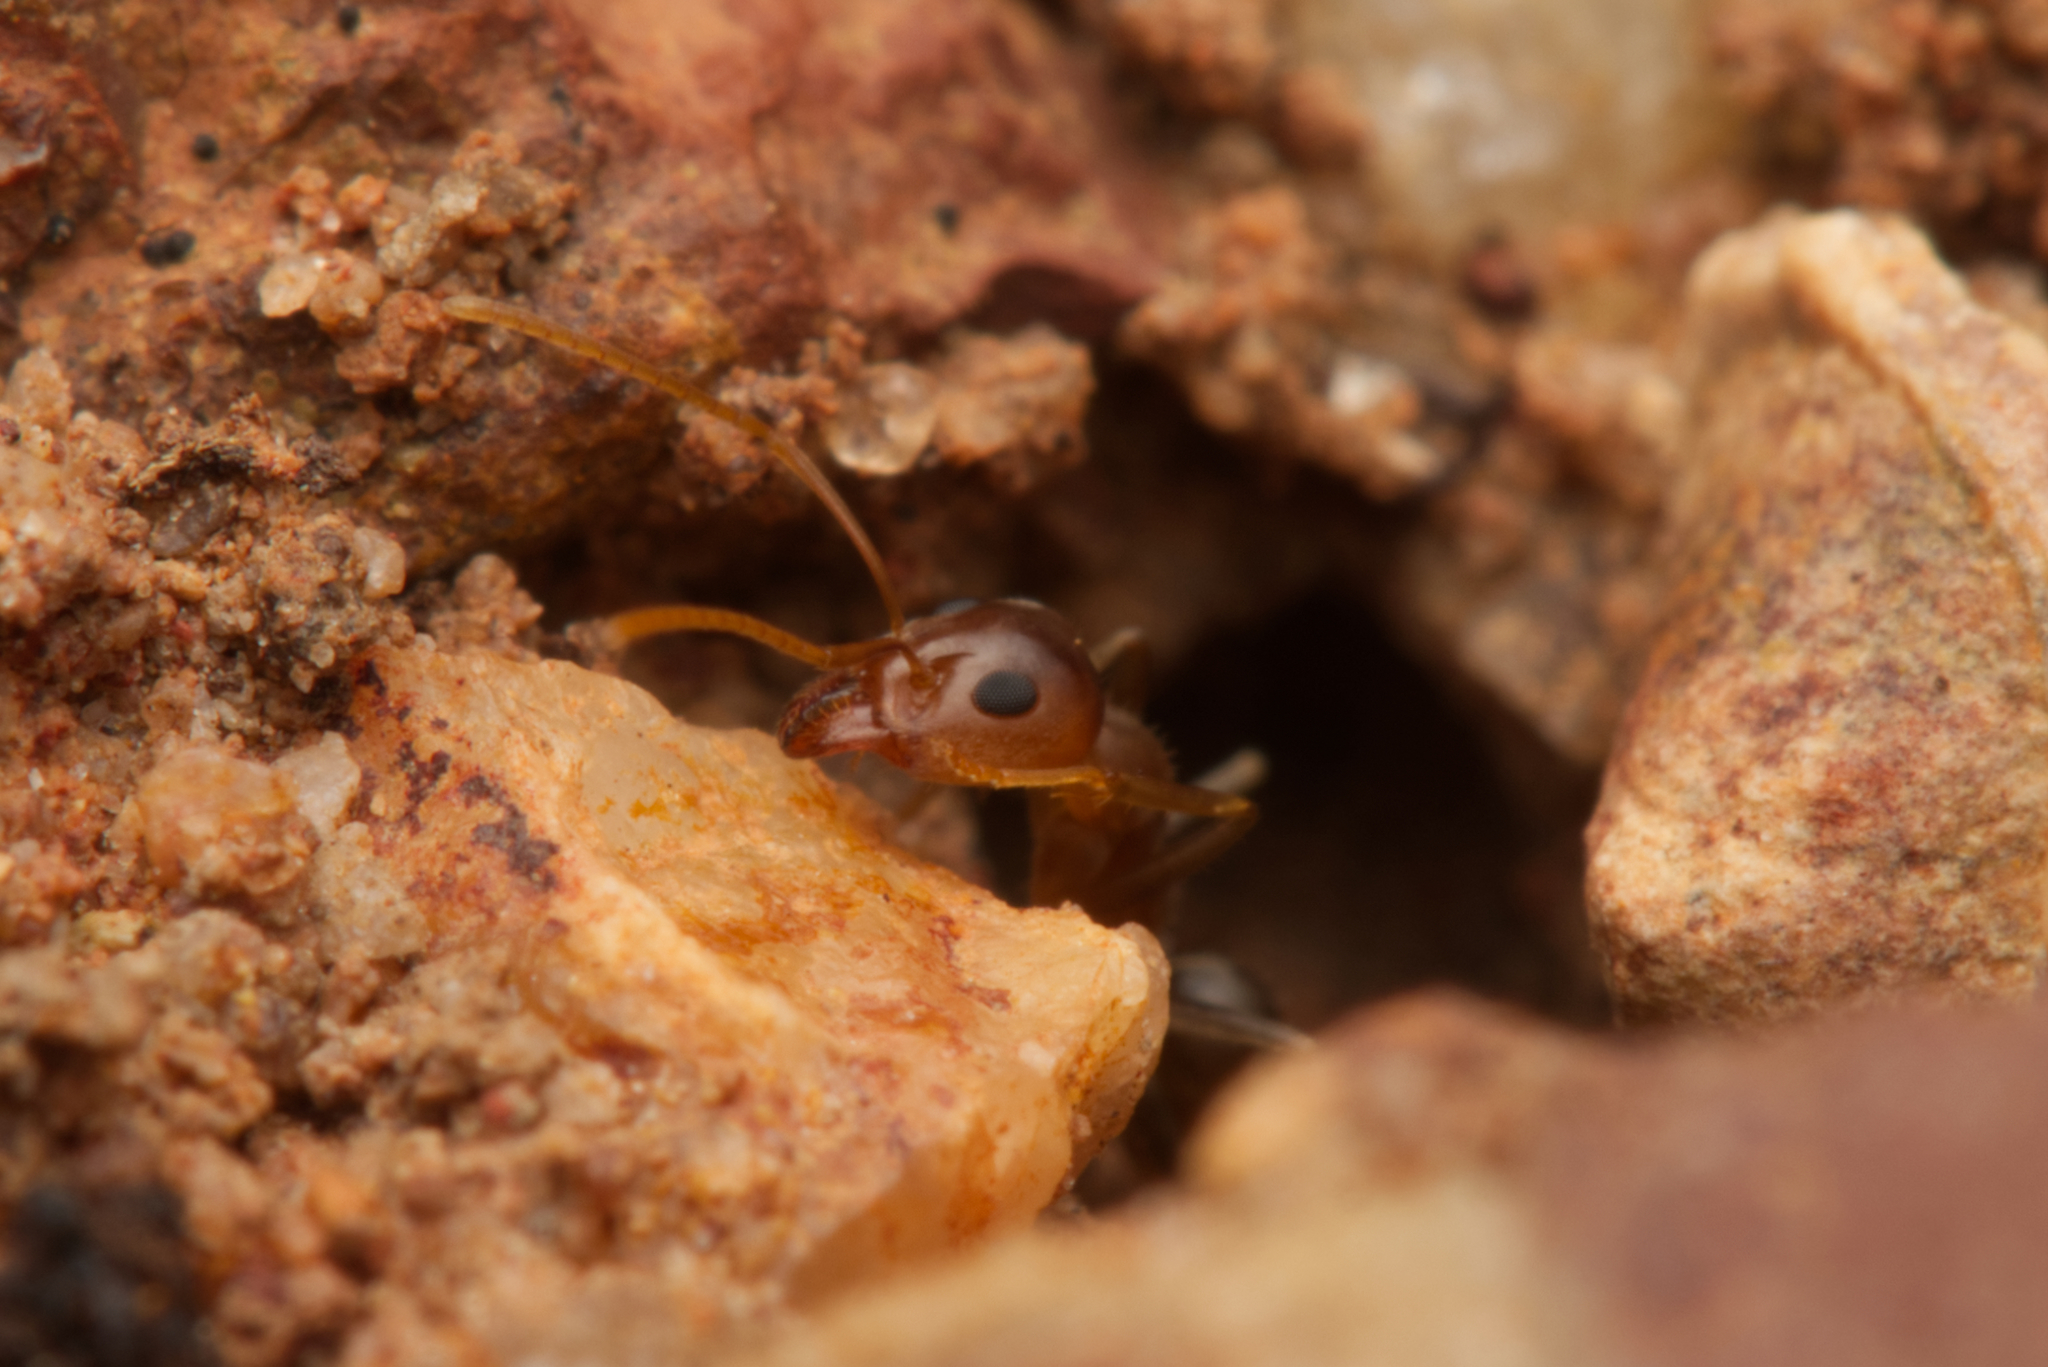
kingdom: Animalia
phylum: Arthropoda
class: Insecta
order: Hymenoptera
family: Formicidae
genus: Iridomyrmex
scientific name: Iridomyrmex pallidus
